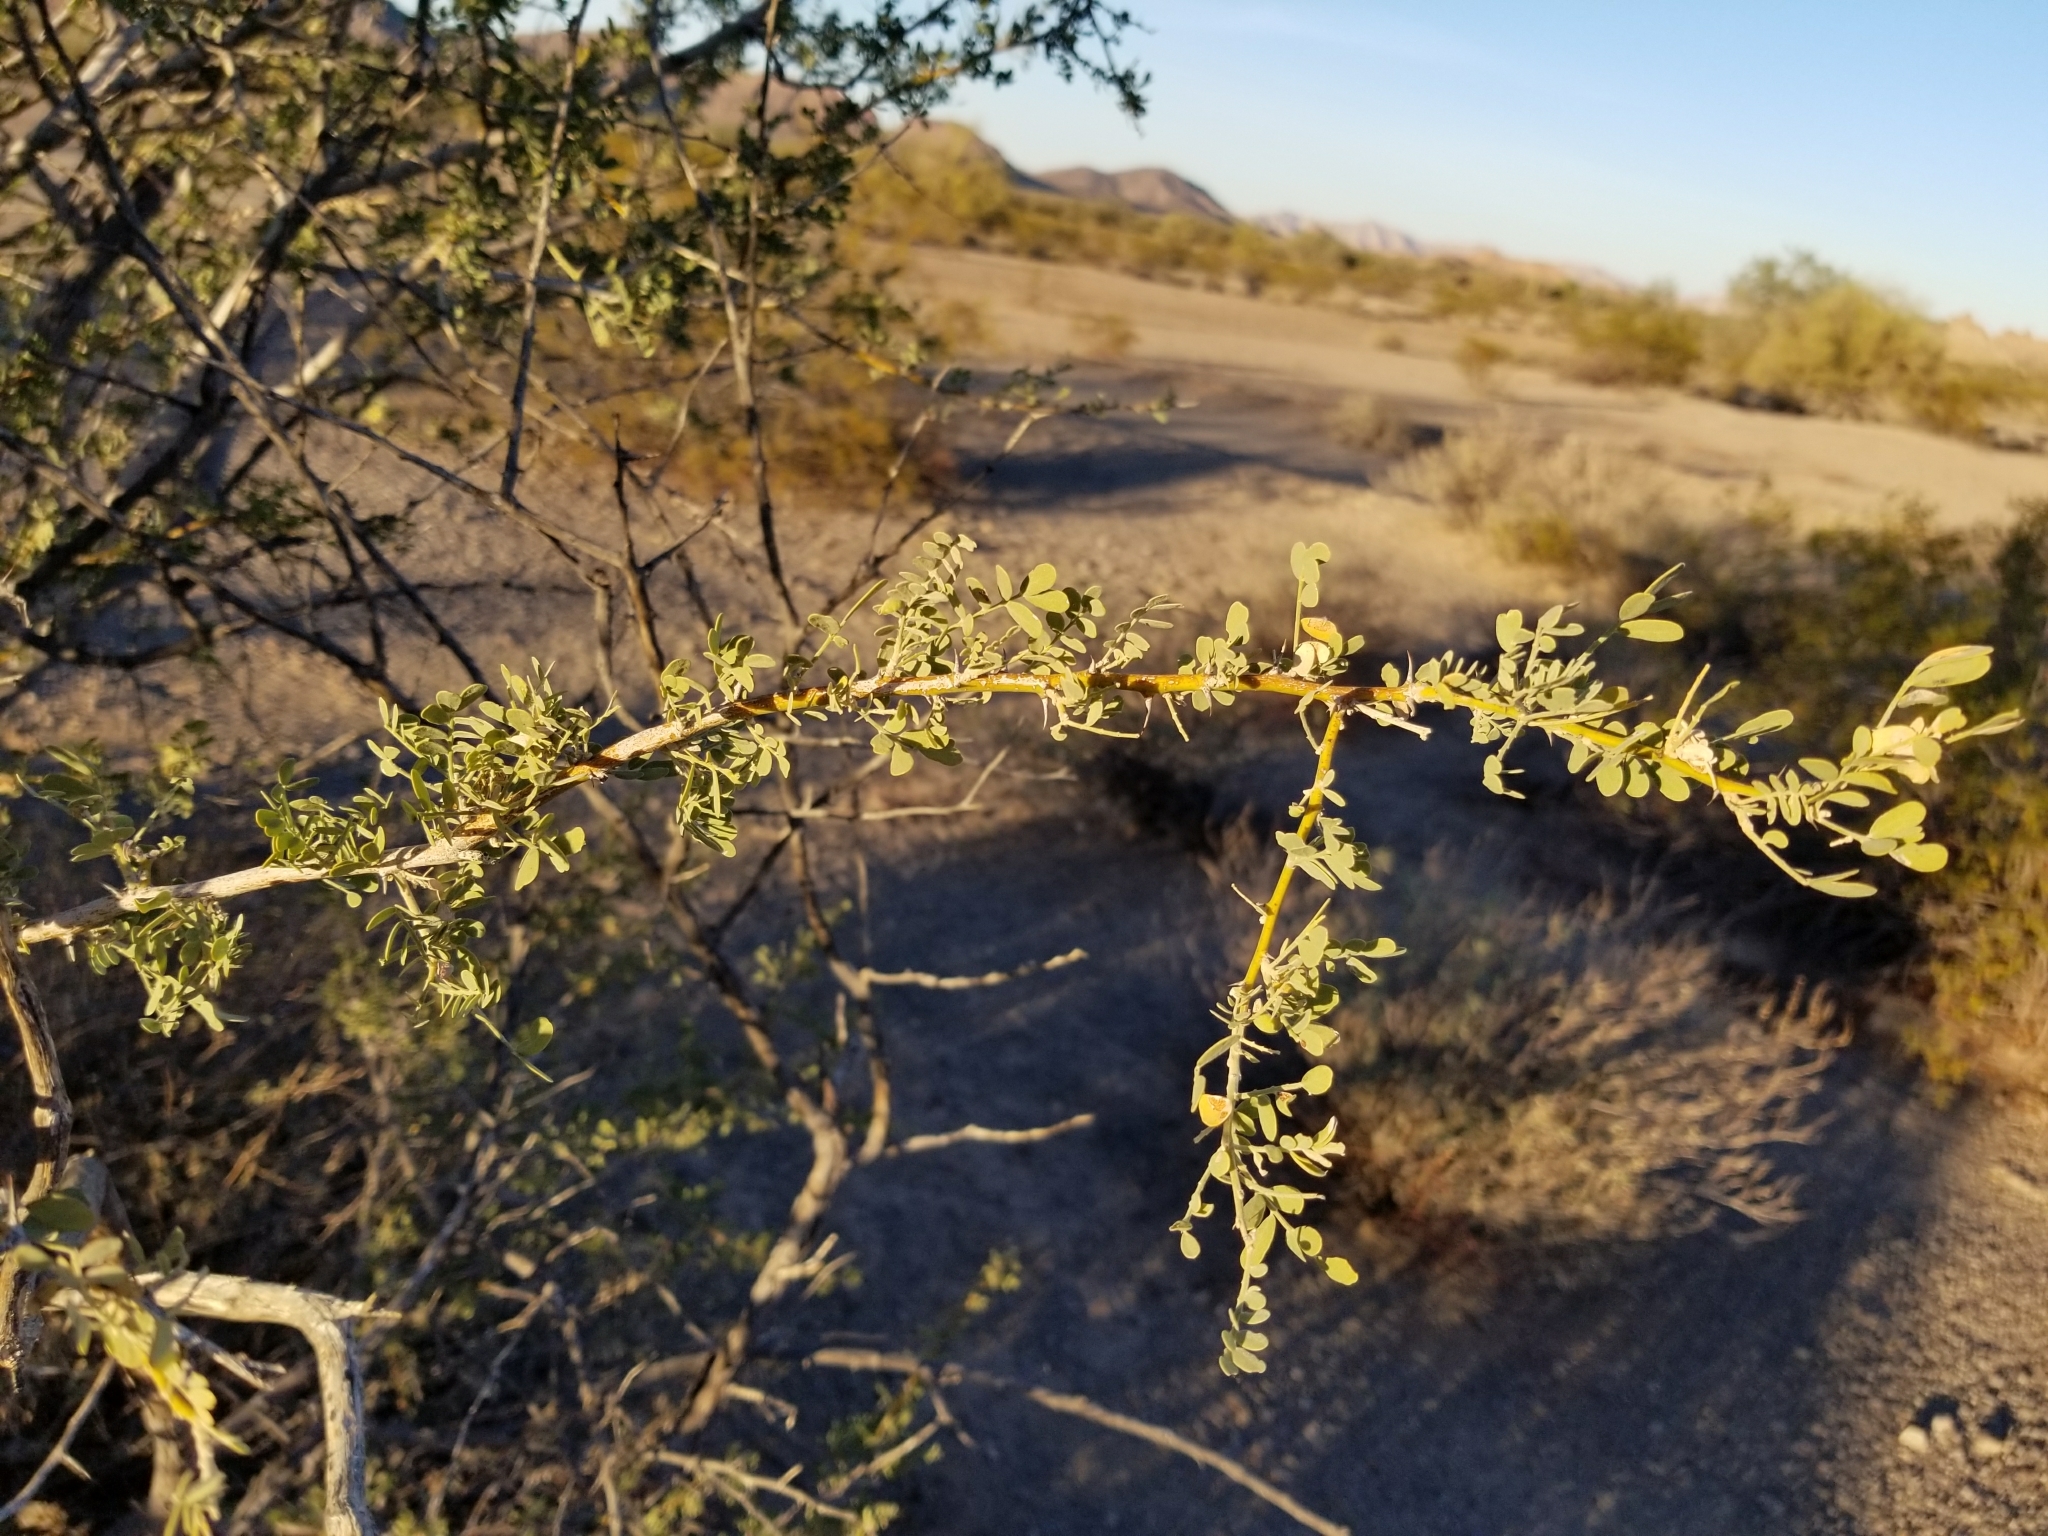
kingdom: Plantae
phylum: Tracheophyta
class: Magnoliopsida
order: Fabales
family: Fabaceae
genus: Senegalia
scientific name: Senegalia greggii
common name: Texas-mimosa
